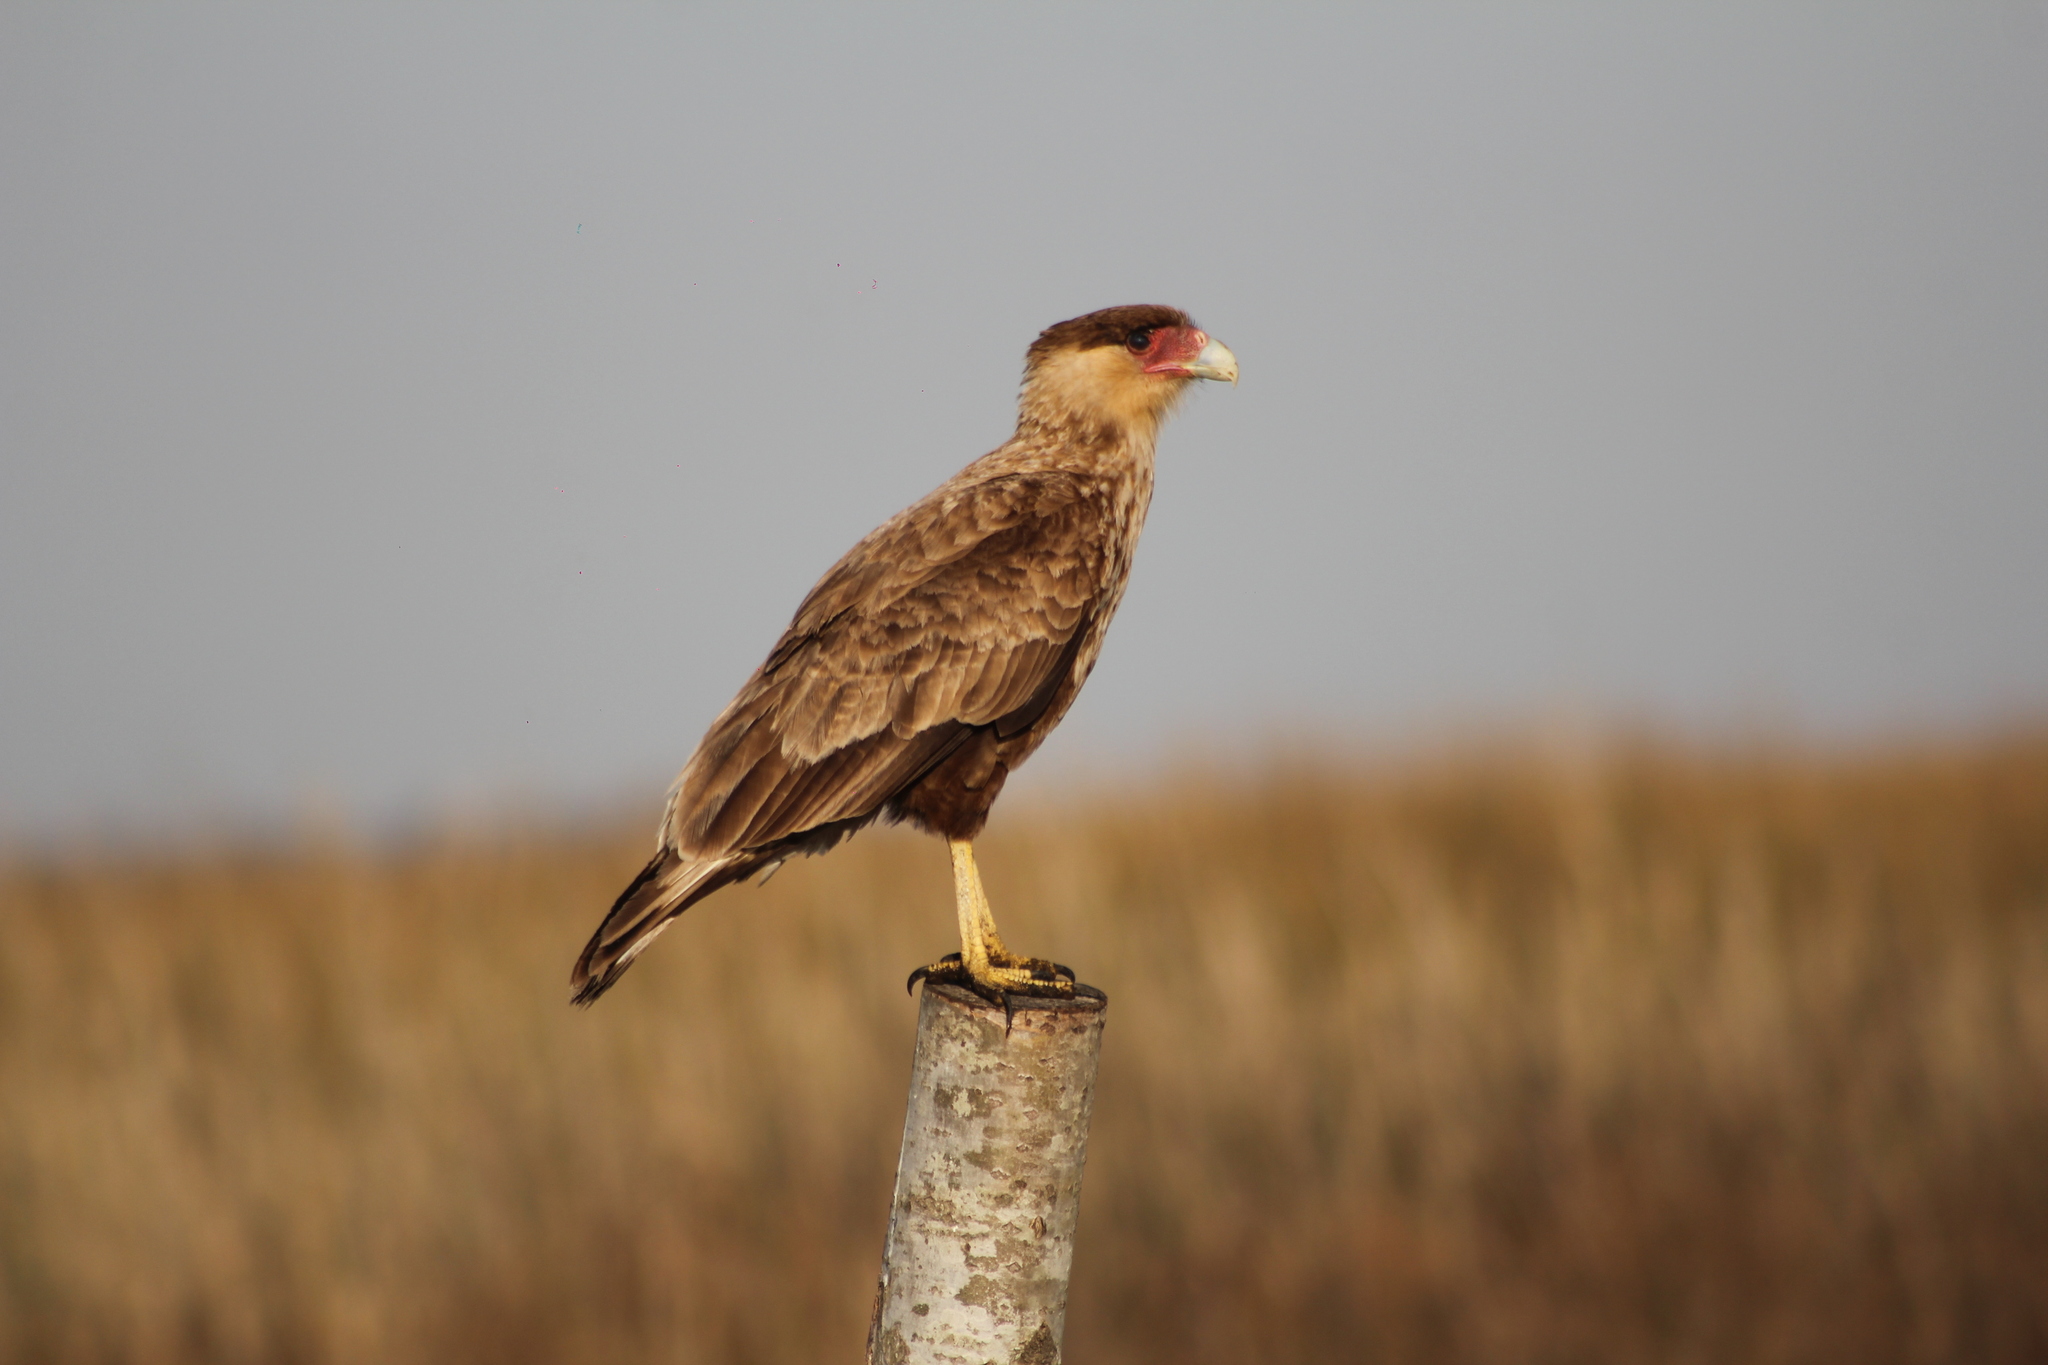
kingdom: Animalia
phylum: Chordata
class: Aves
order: Falconiformes
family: Falconidae
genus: Caracara
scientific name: Caracara plancus
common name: Southern caracara
